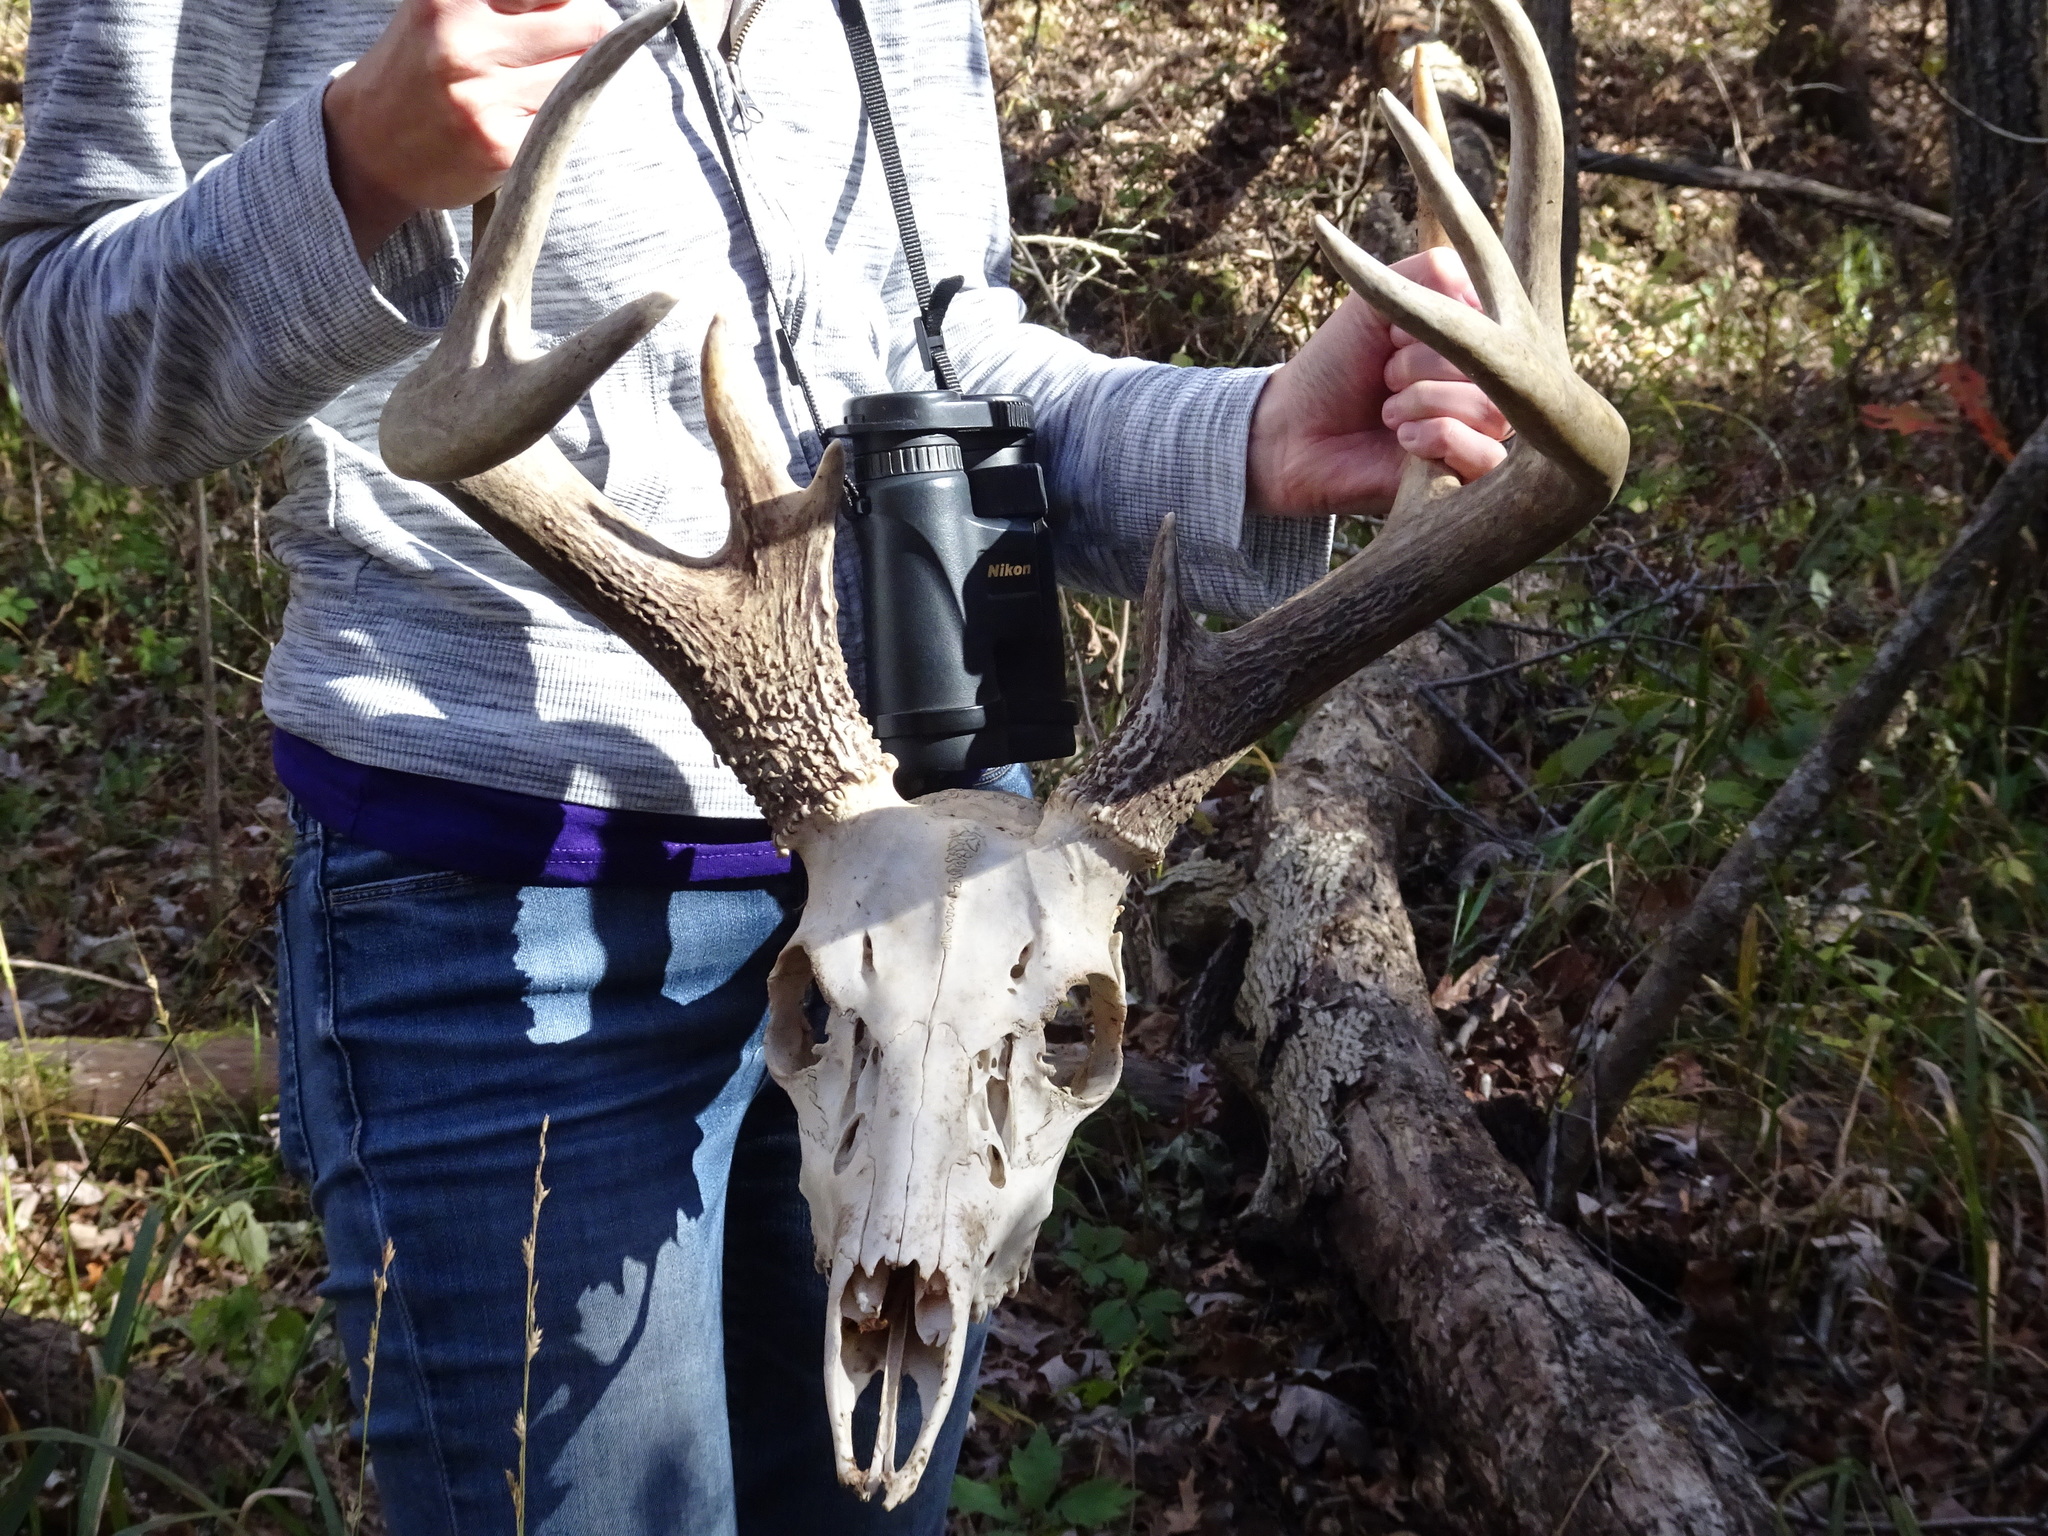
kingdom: Animalia
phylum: Chordata
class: Mammalia
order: Artiodactyla
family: Cervidae
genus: Odocoileus
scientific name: Odocoileus virginianus
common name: White-tailed deer
